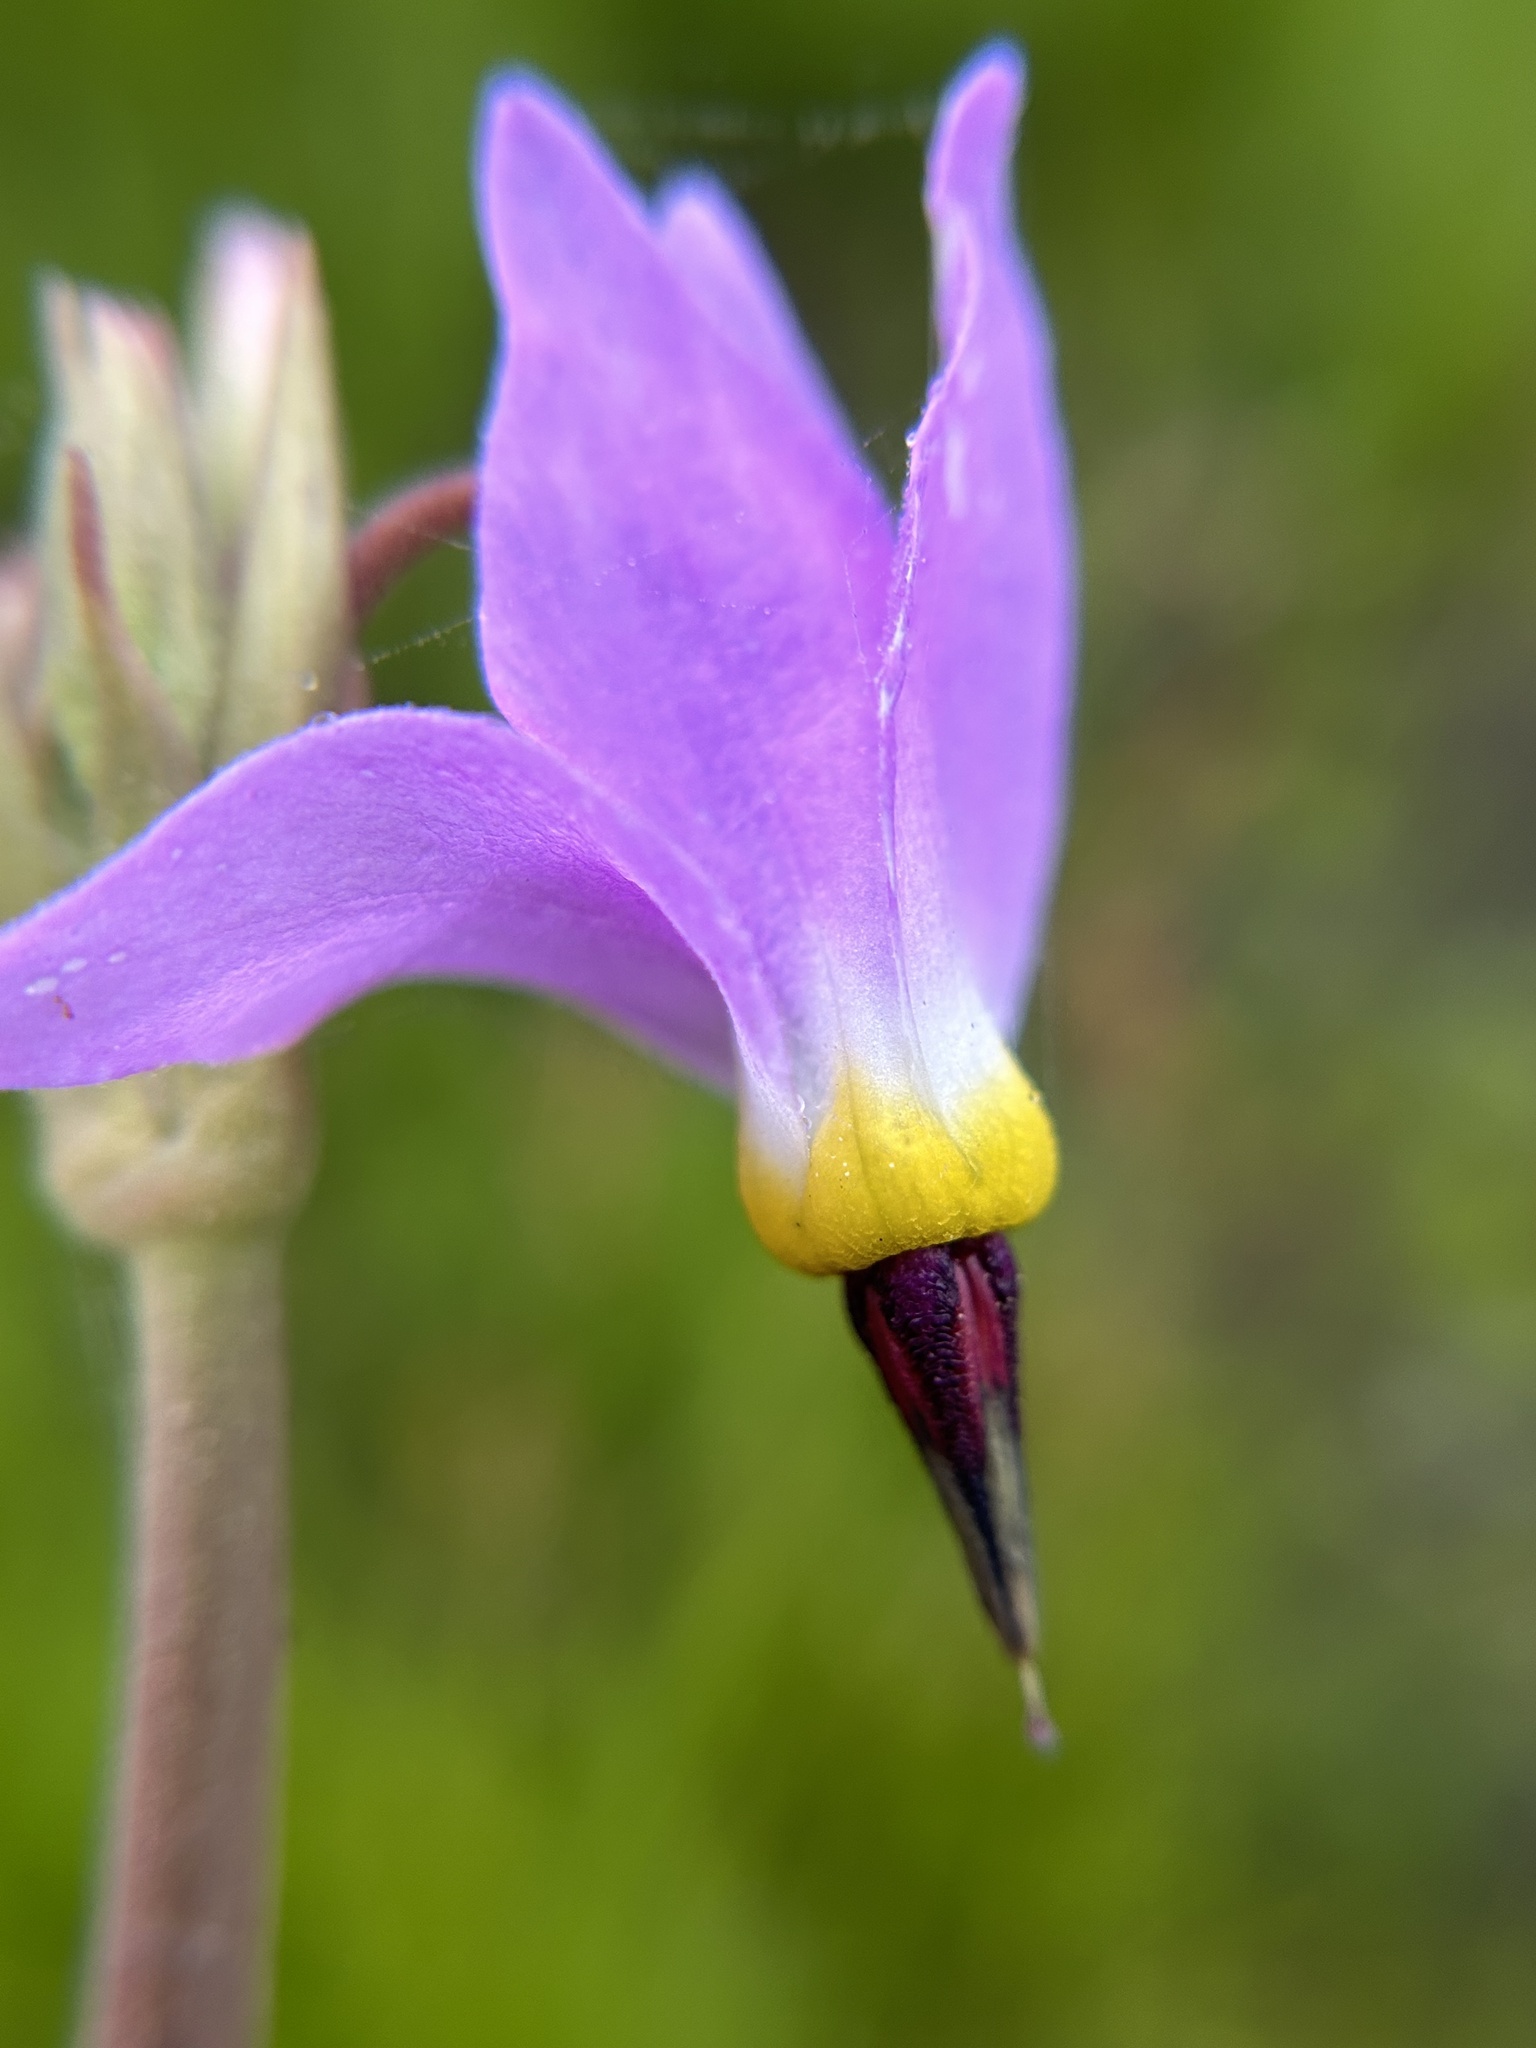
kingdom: Plantae
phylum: Tracheophyta
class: Magnoliopsida
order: Ericales
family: Primulaceae
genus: Dodecatheon
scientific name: Dodecatheon jeffreyanum
